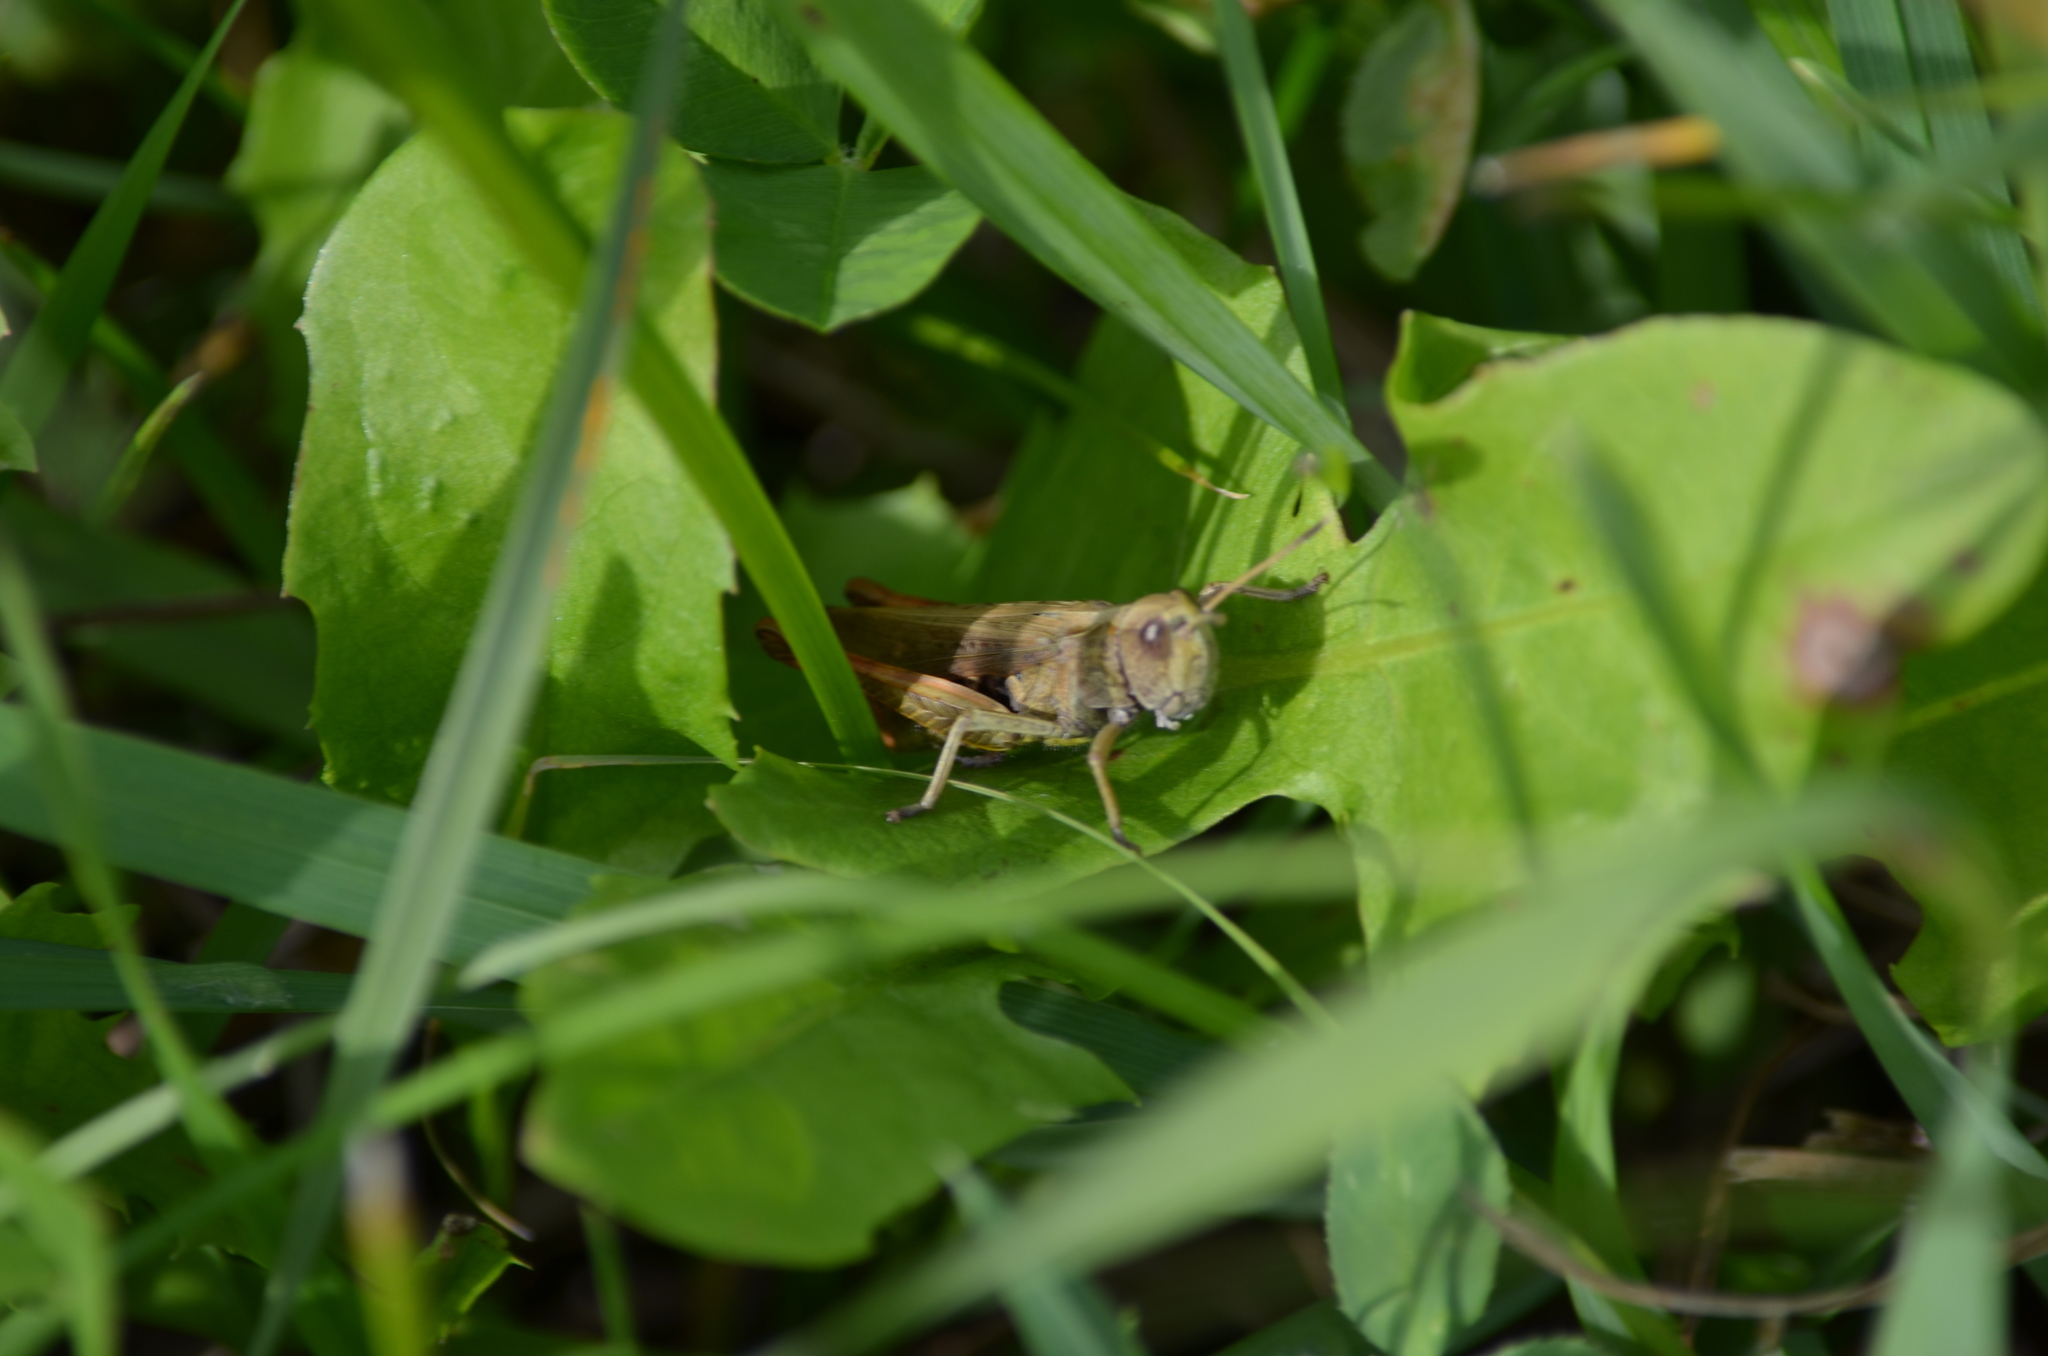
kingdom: Animalia
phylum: Arthropoda
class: Insecta
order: Orthoptera
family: Acrididae
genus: Gomphocerippus
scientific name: Gomphocerippus rufus
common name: Rufous grasshopper
